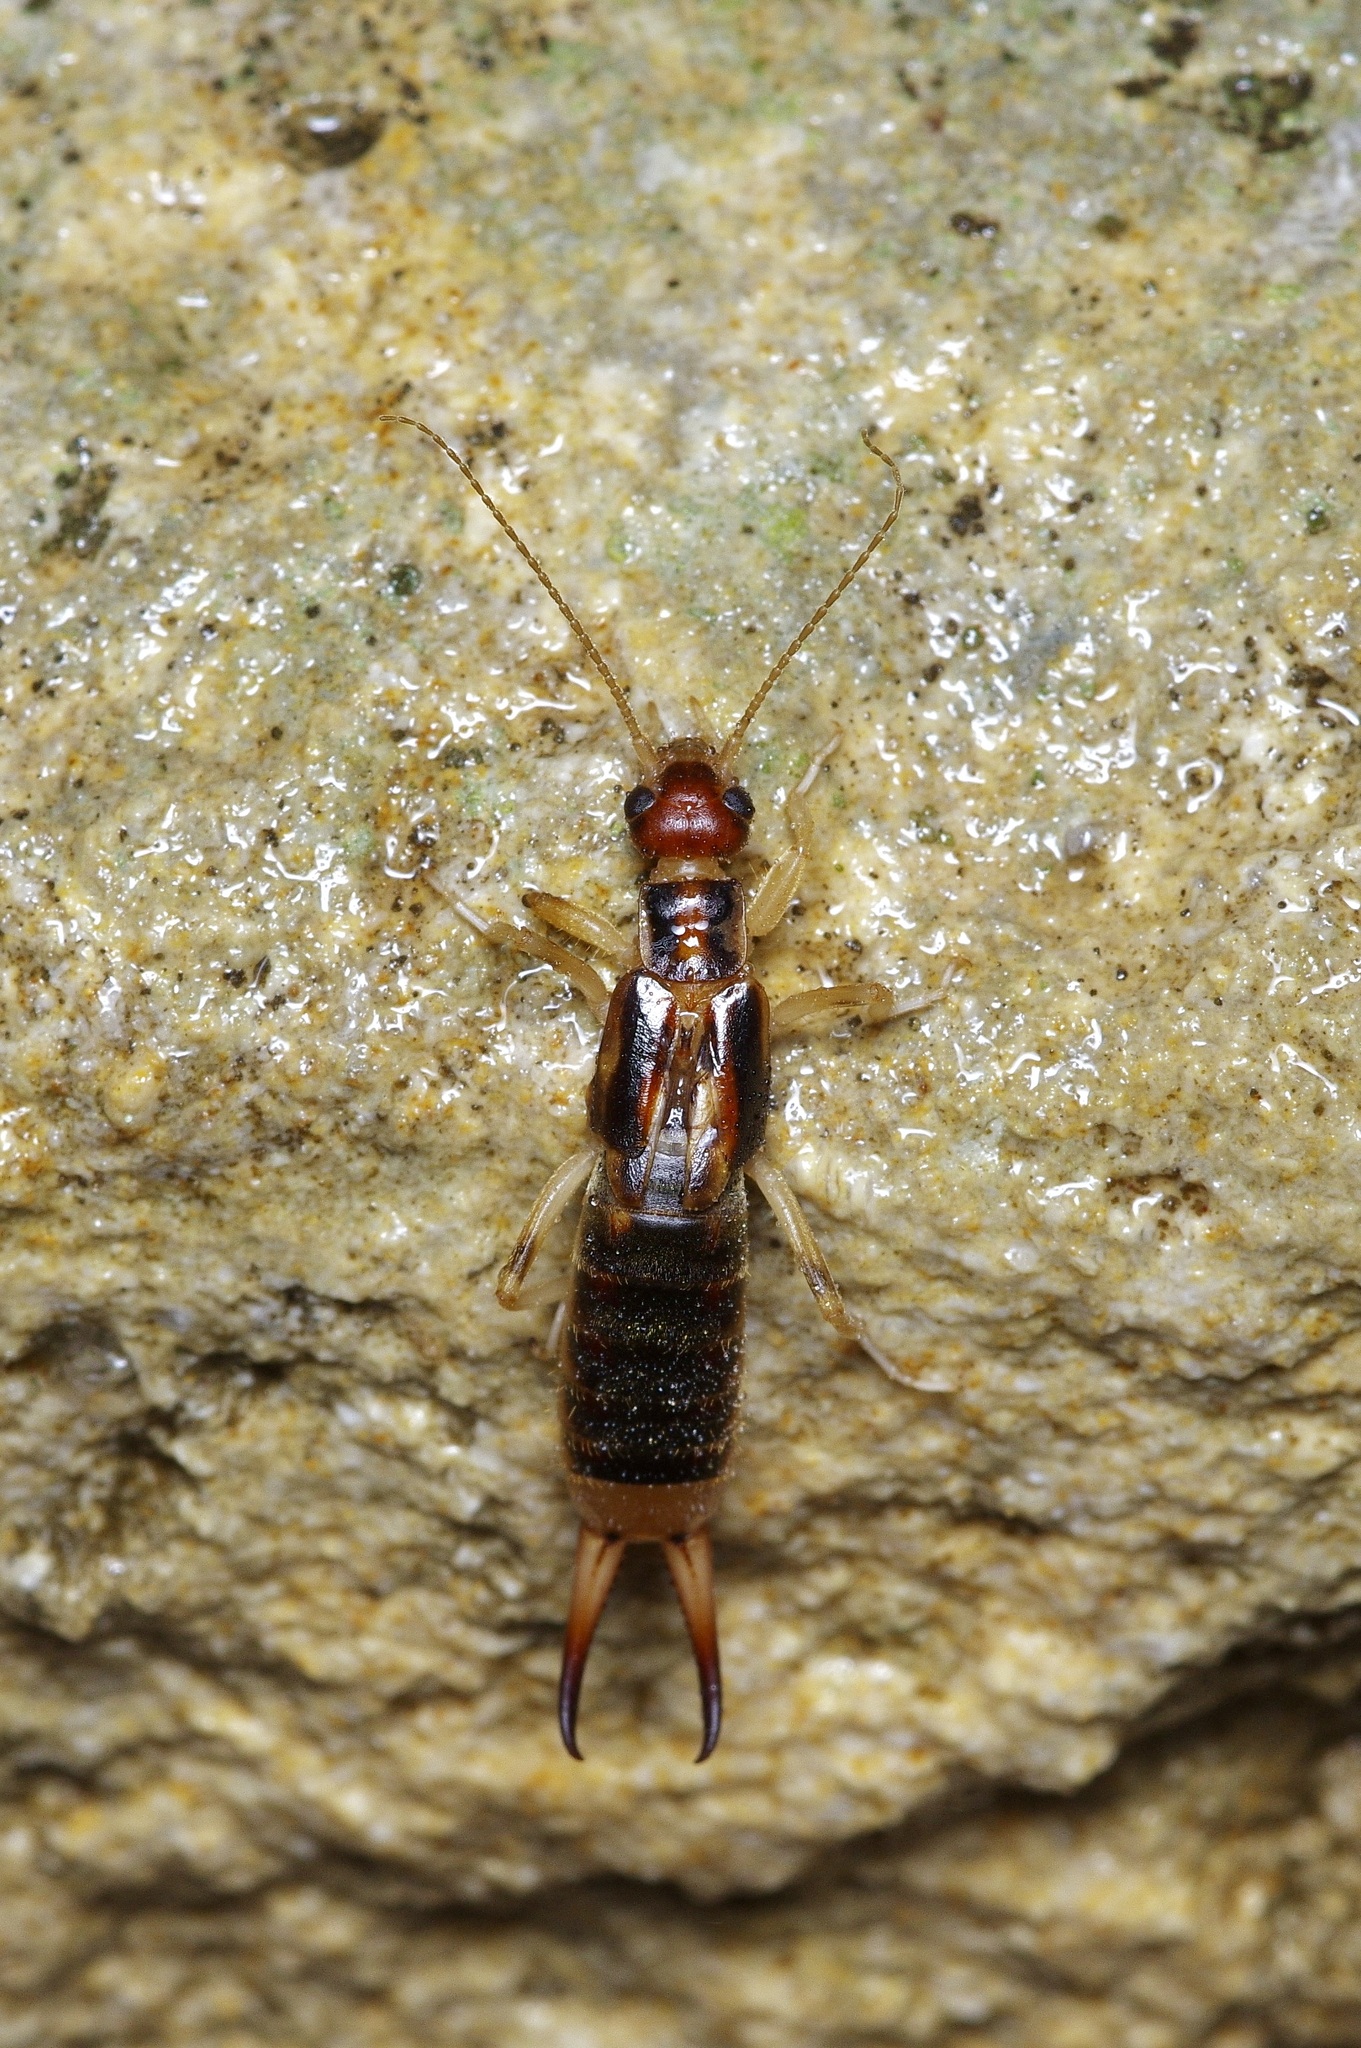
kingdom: Animalia
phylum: Arthropoda
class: Insecta
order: Dermaptera
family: Labiduridae
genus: Labidura
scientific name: Labidura riparia
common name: Striped earwig
